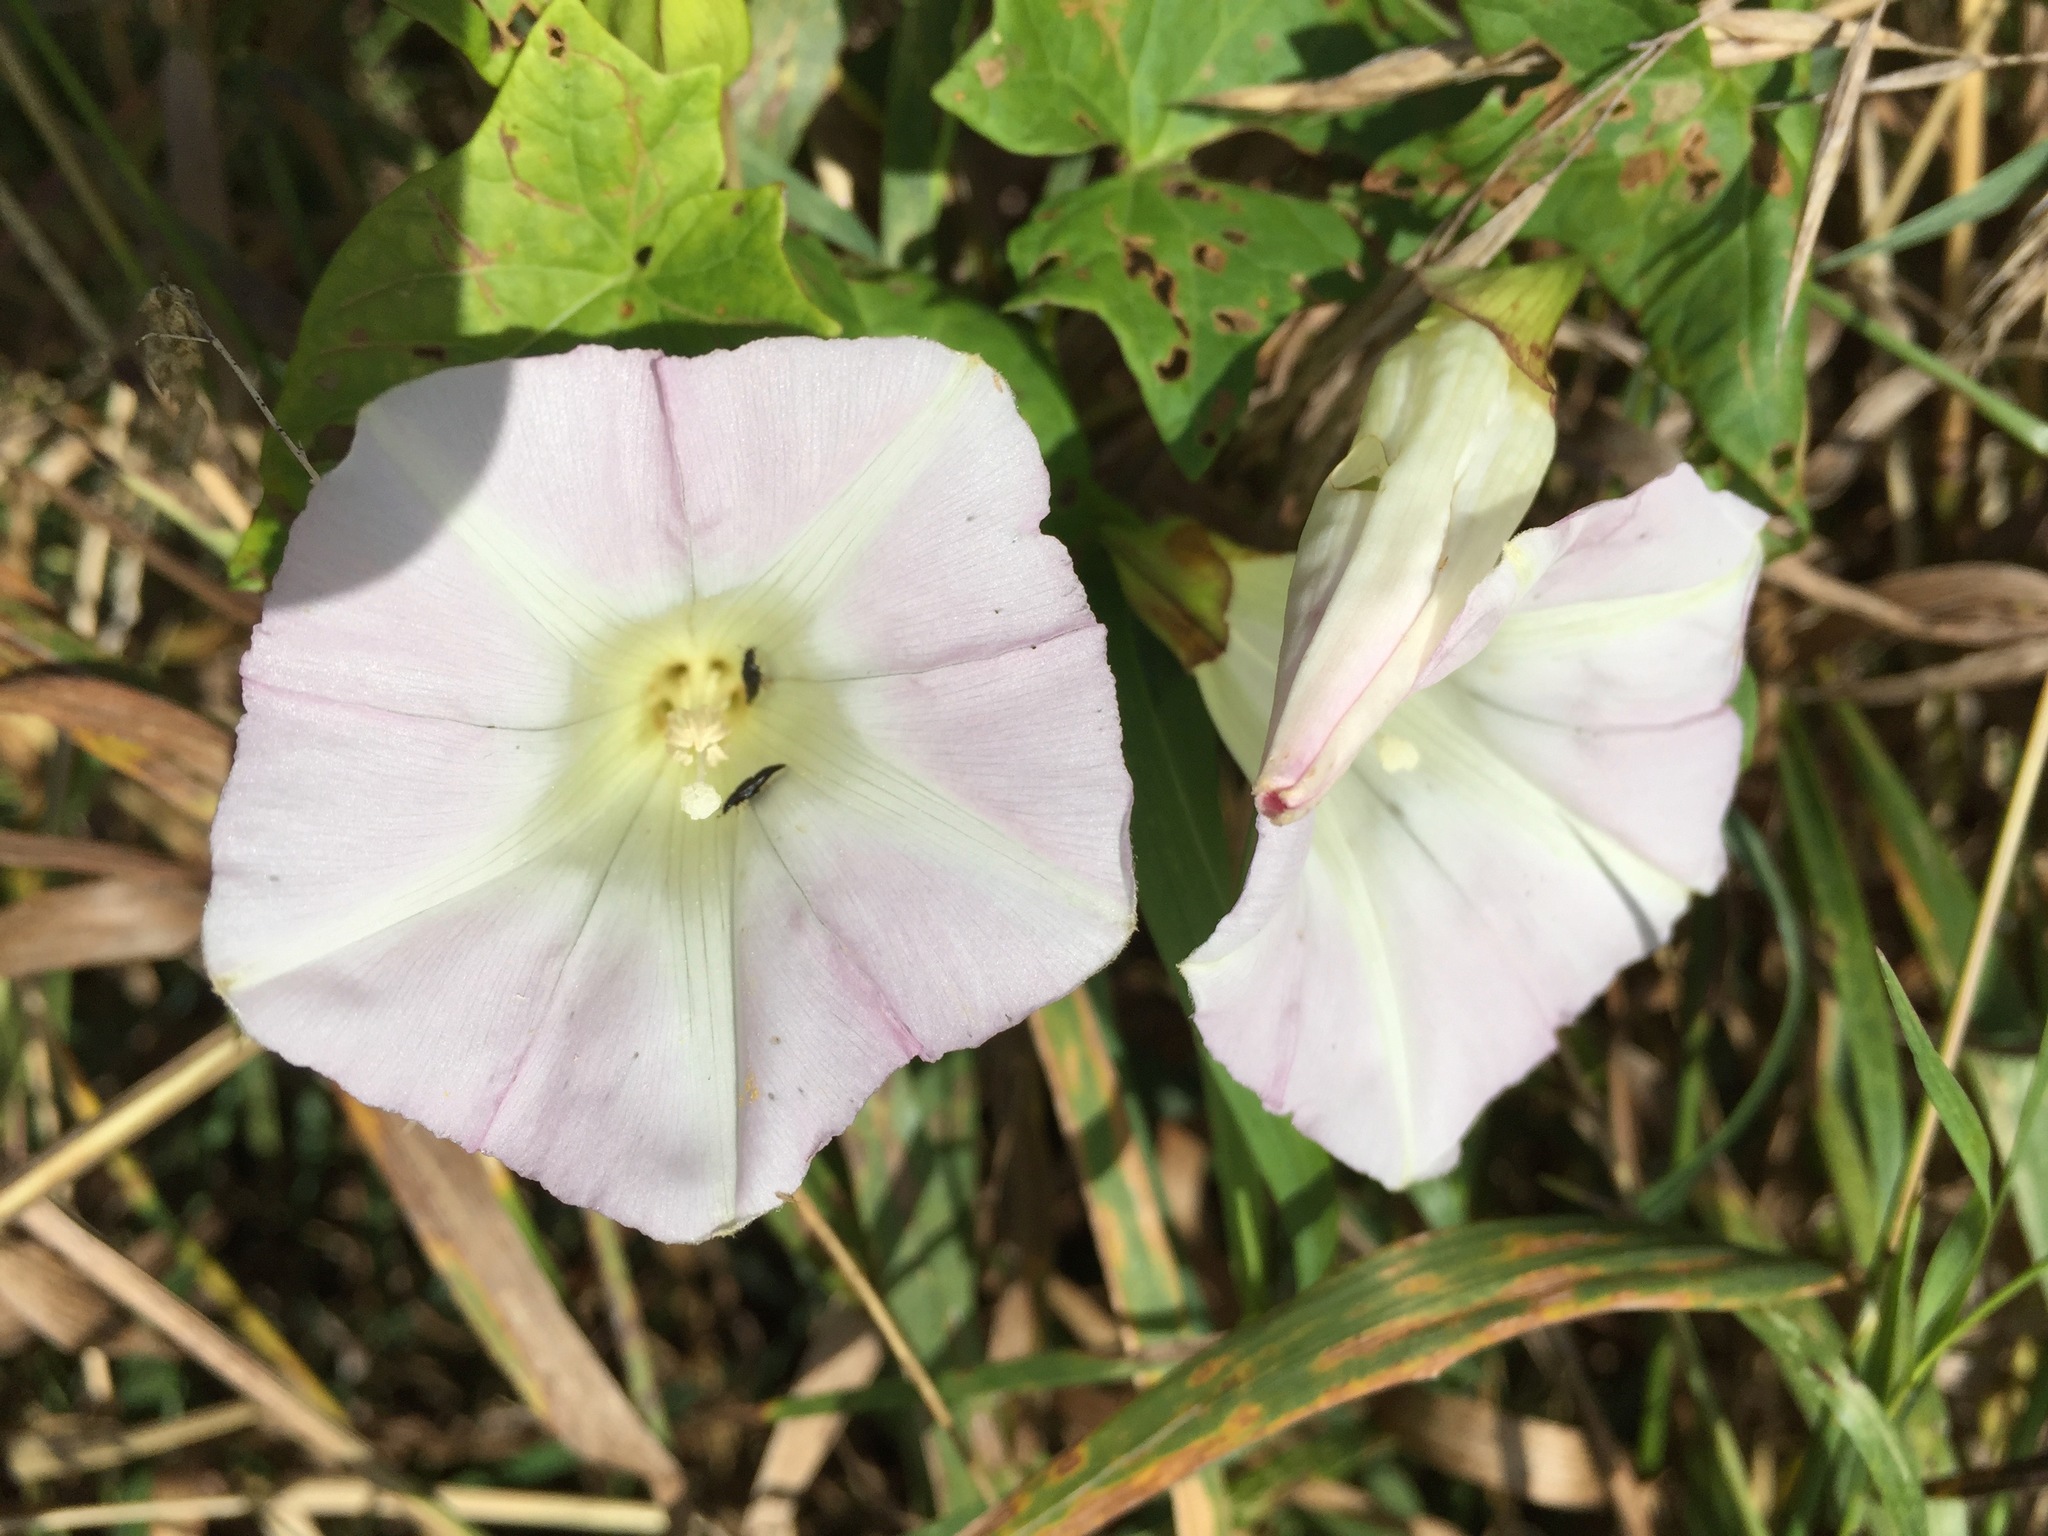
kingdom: Plantae
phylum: Tracheophyta
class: Magnoliopsida
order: Solanales
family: Convolvulaceae
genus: Calystegia
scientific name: Calystegia sepium
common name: Hedge bindweed
